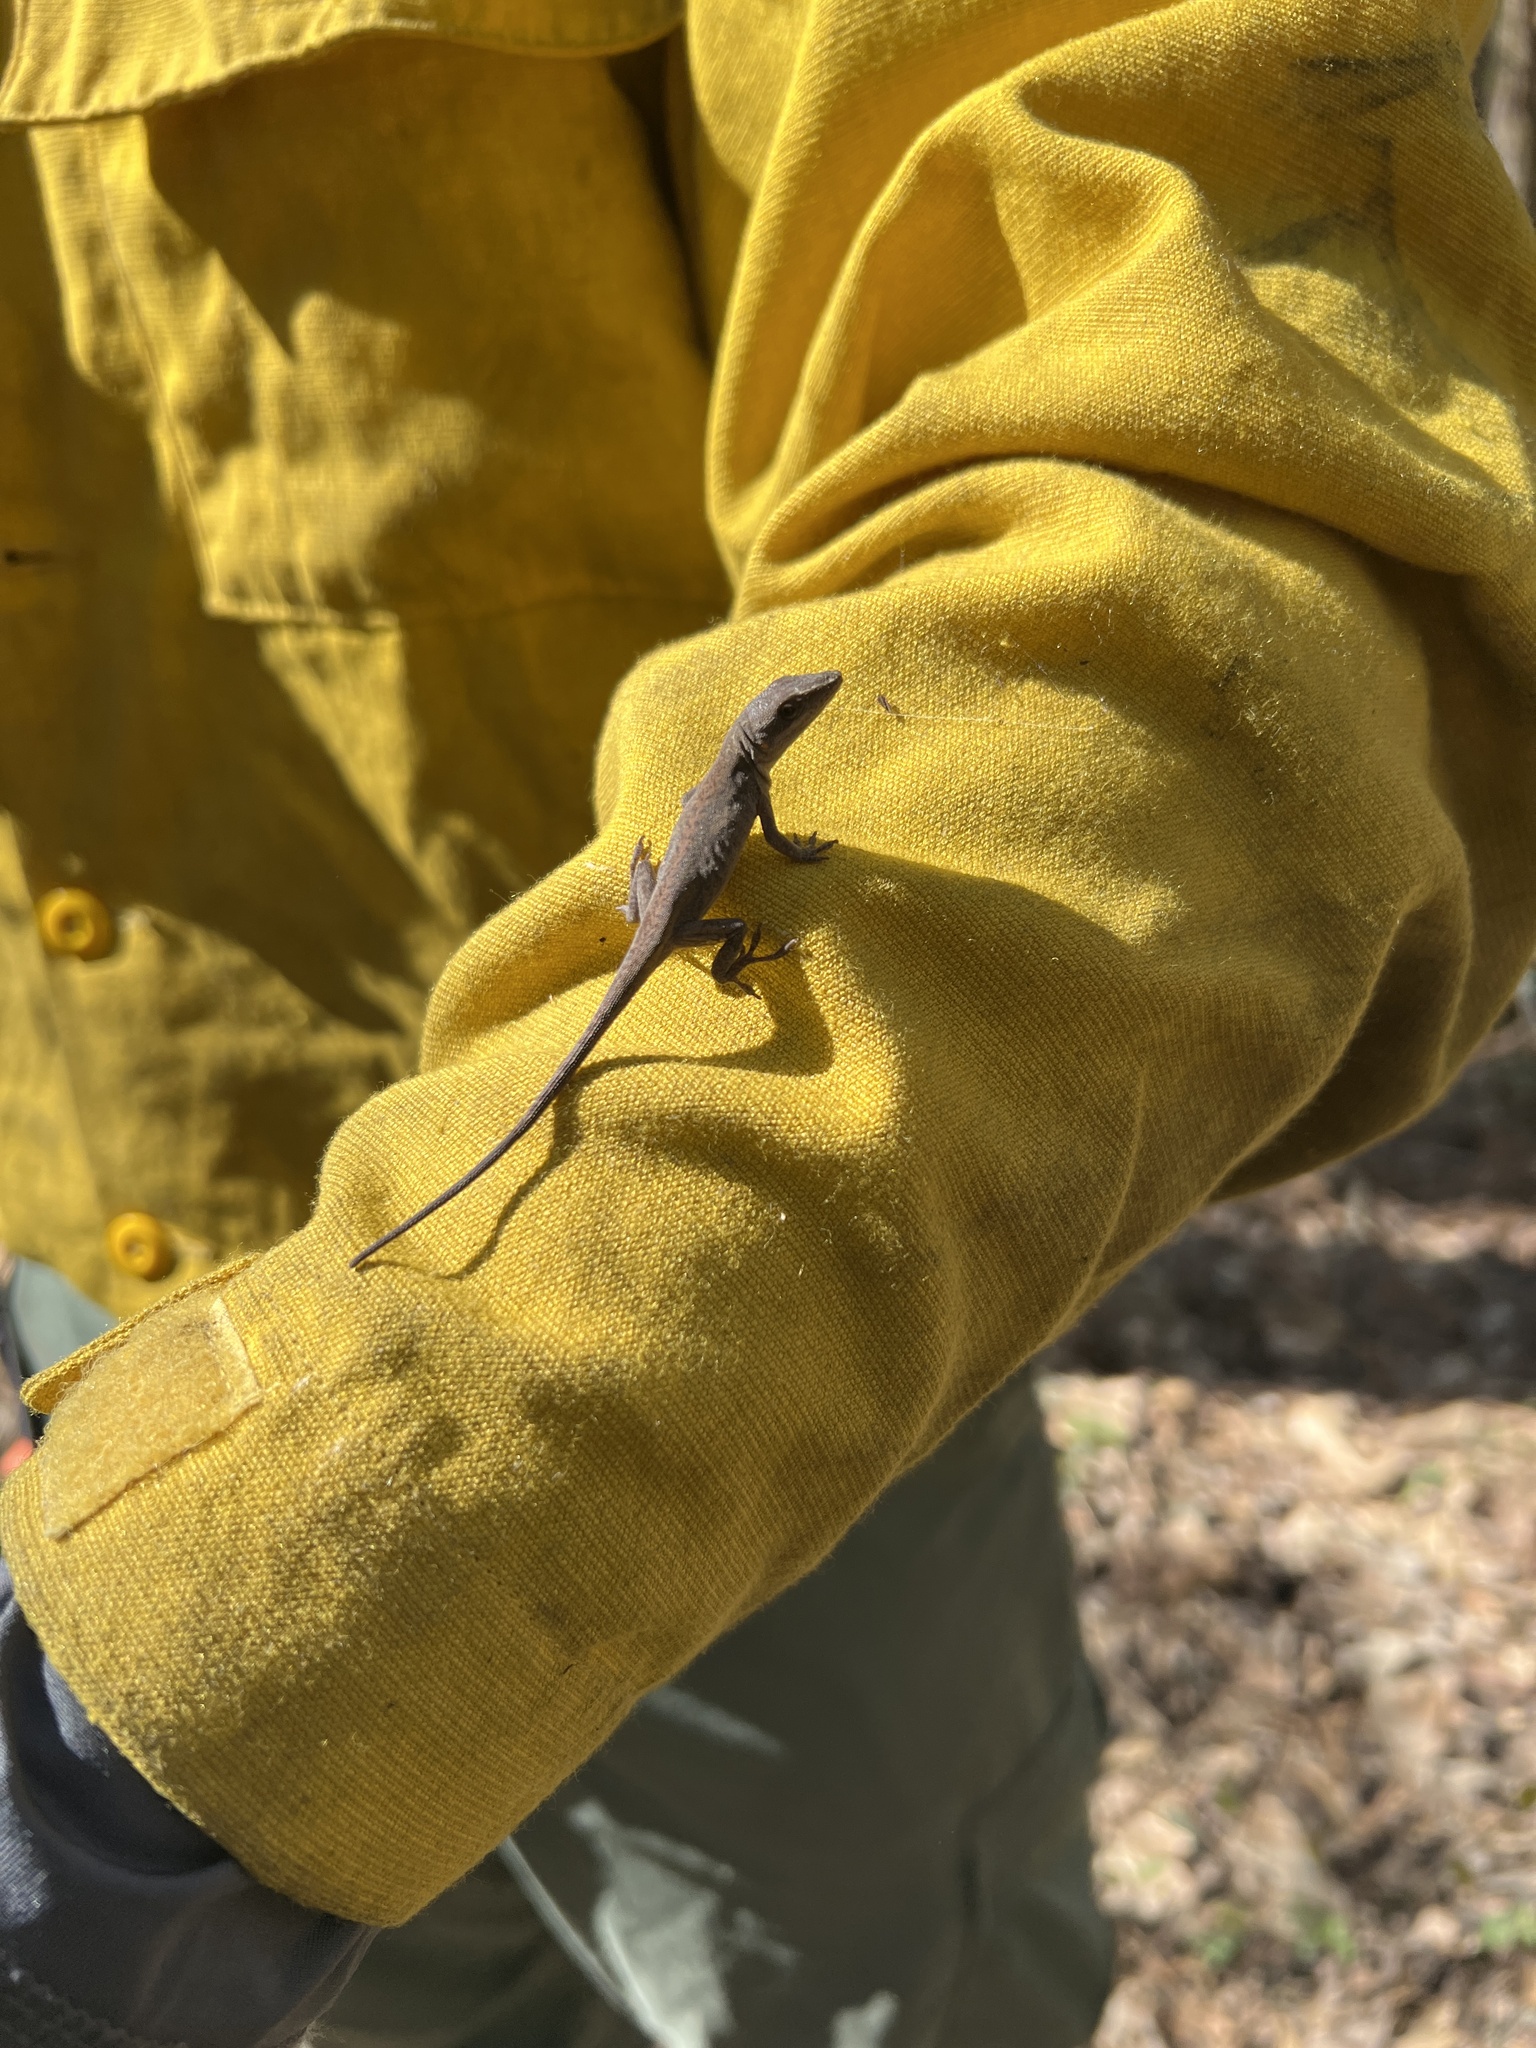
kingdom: Animalia
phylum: Chordata
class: Squamata
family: Dactyloidae
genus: Anolis
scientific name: Anolis carolinensis
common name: Green anole
